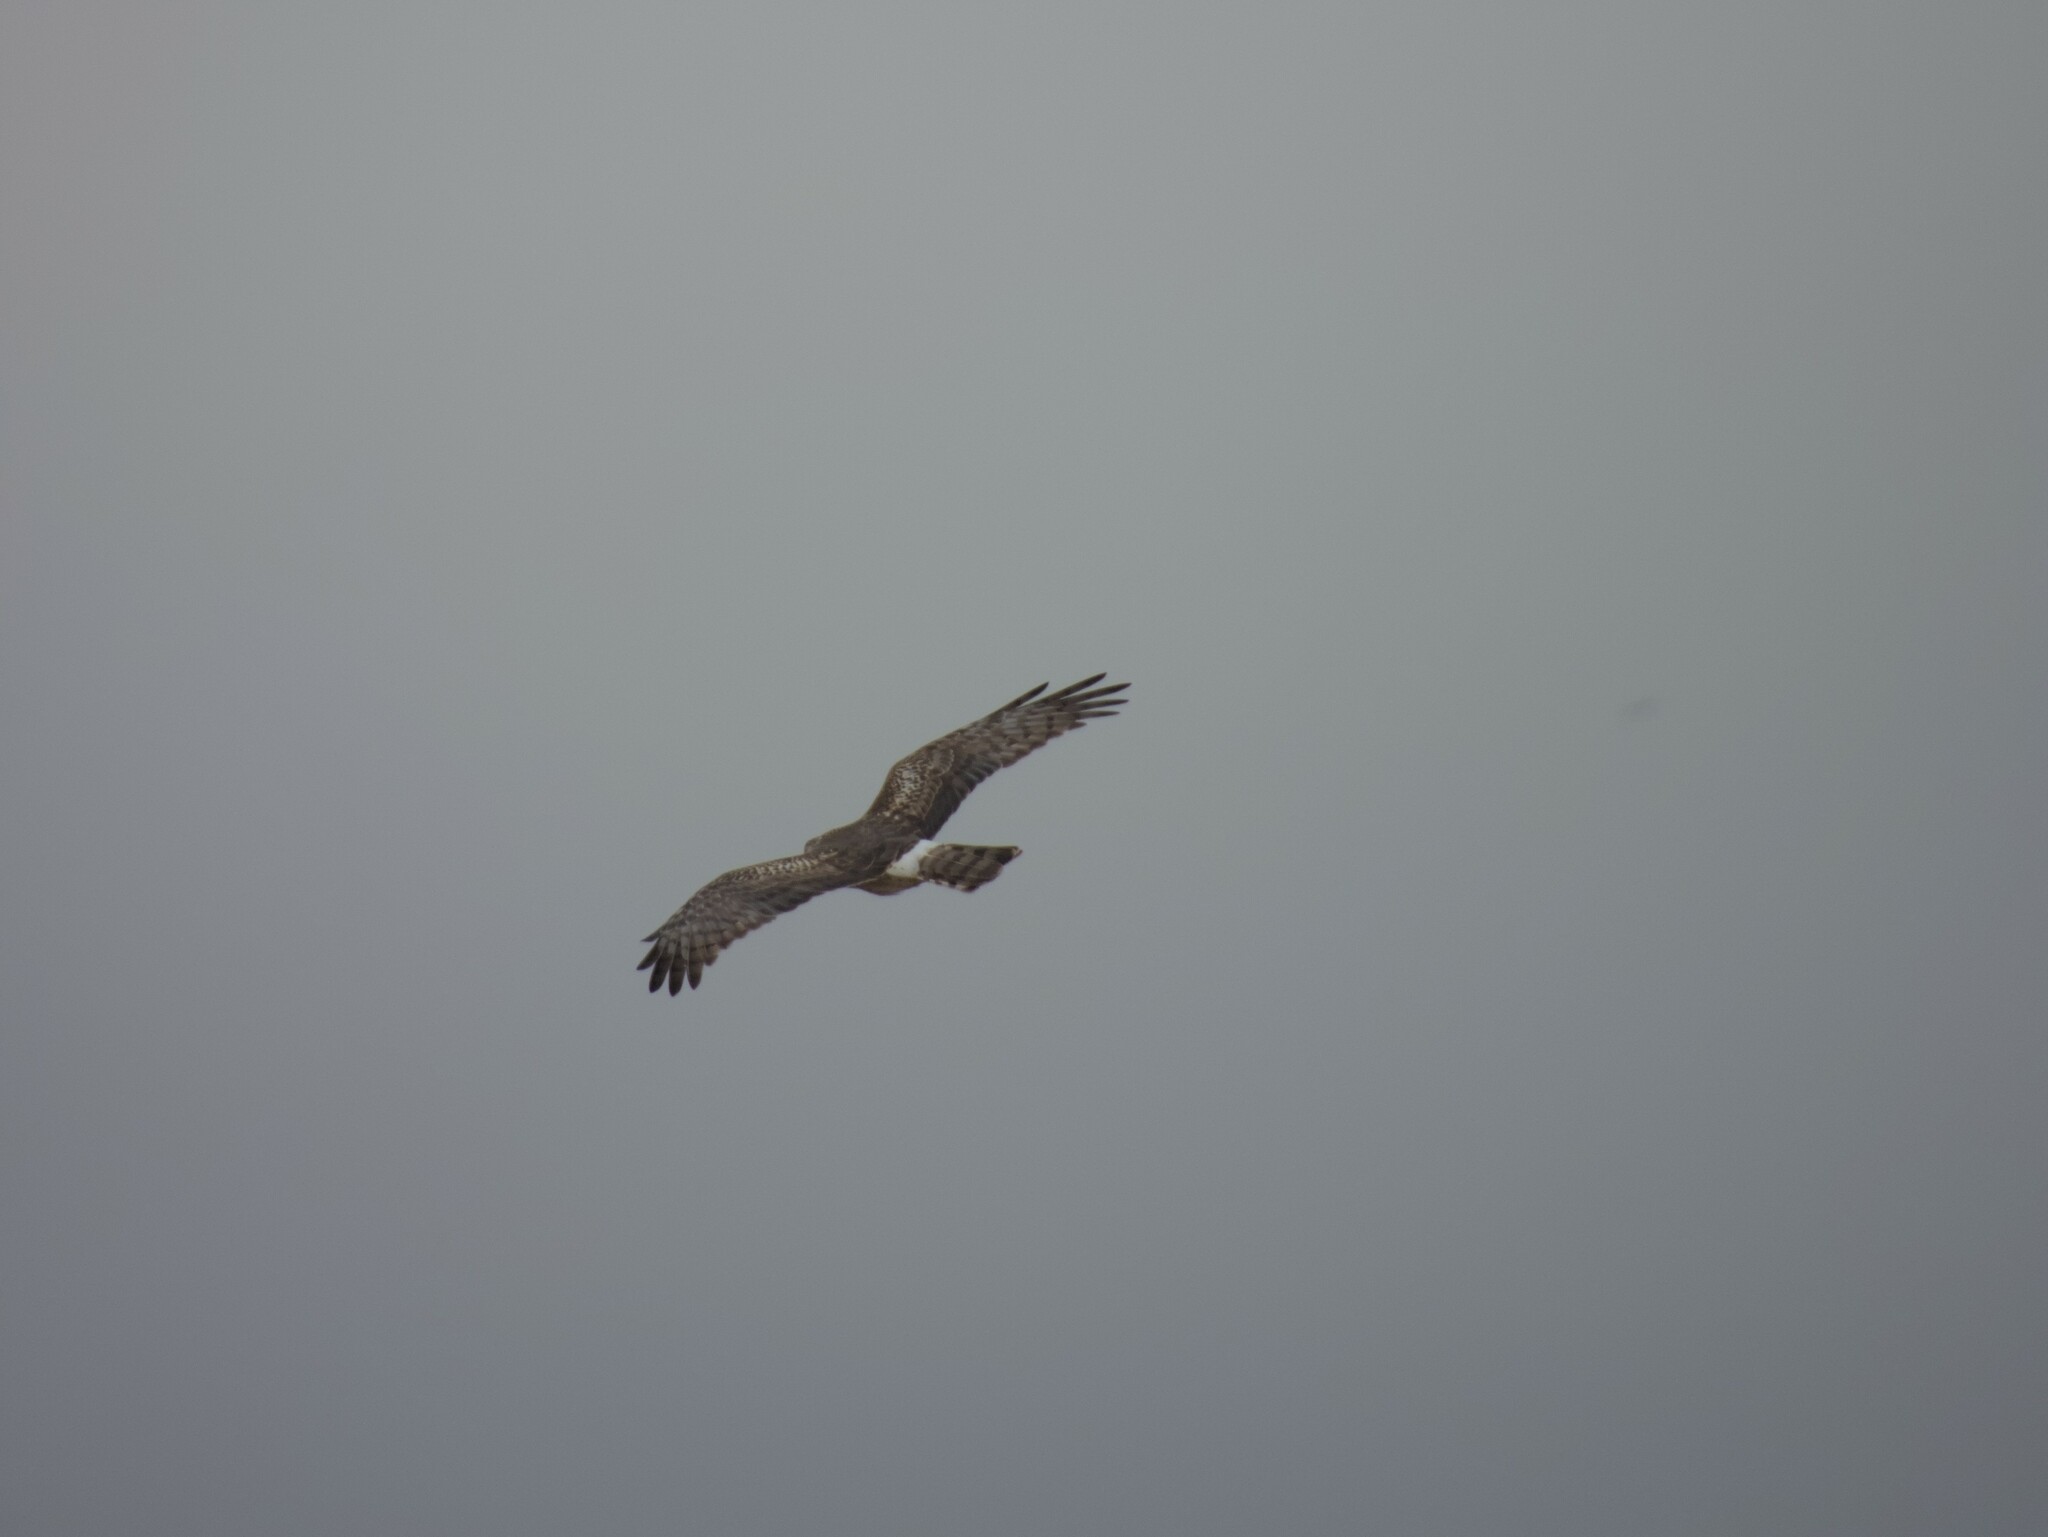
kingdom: Animalia
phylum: Chordata
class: Aves
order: Accipitriformes
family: Accipitridae
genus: Circus
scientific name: Circus cyaneus
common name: Hen harrier
